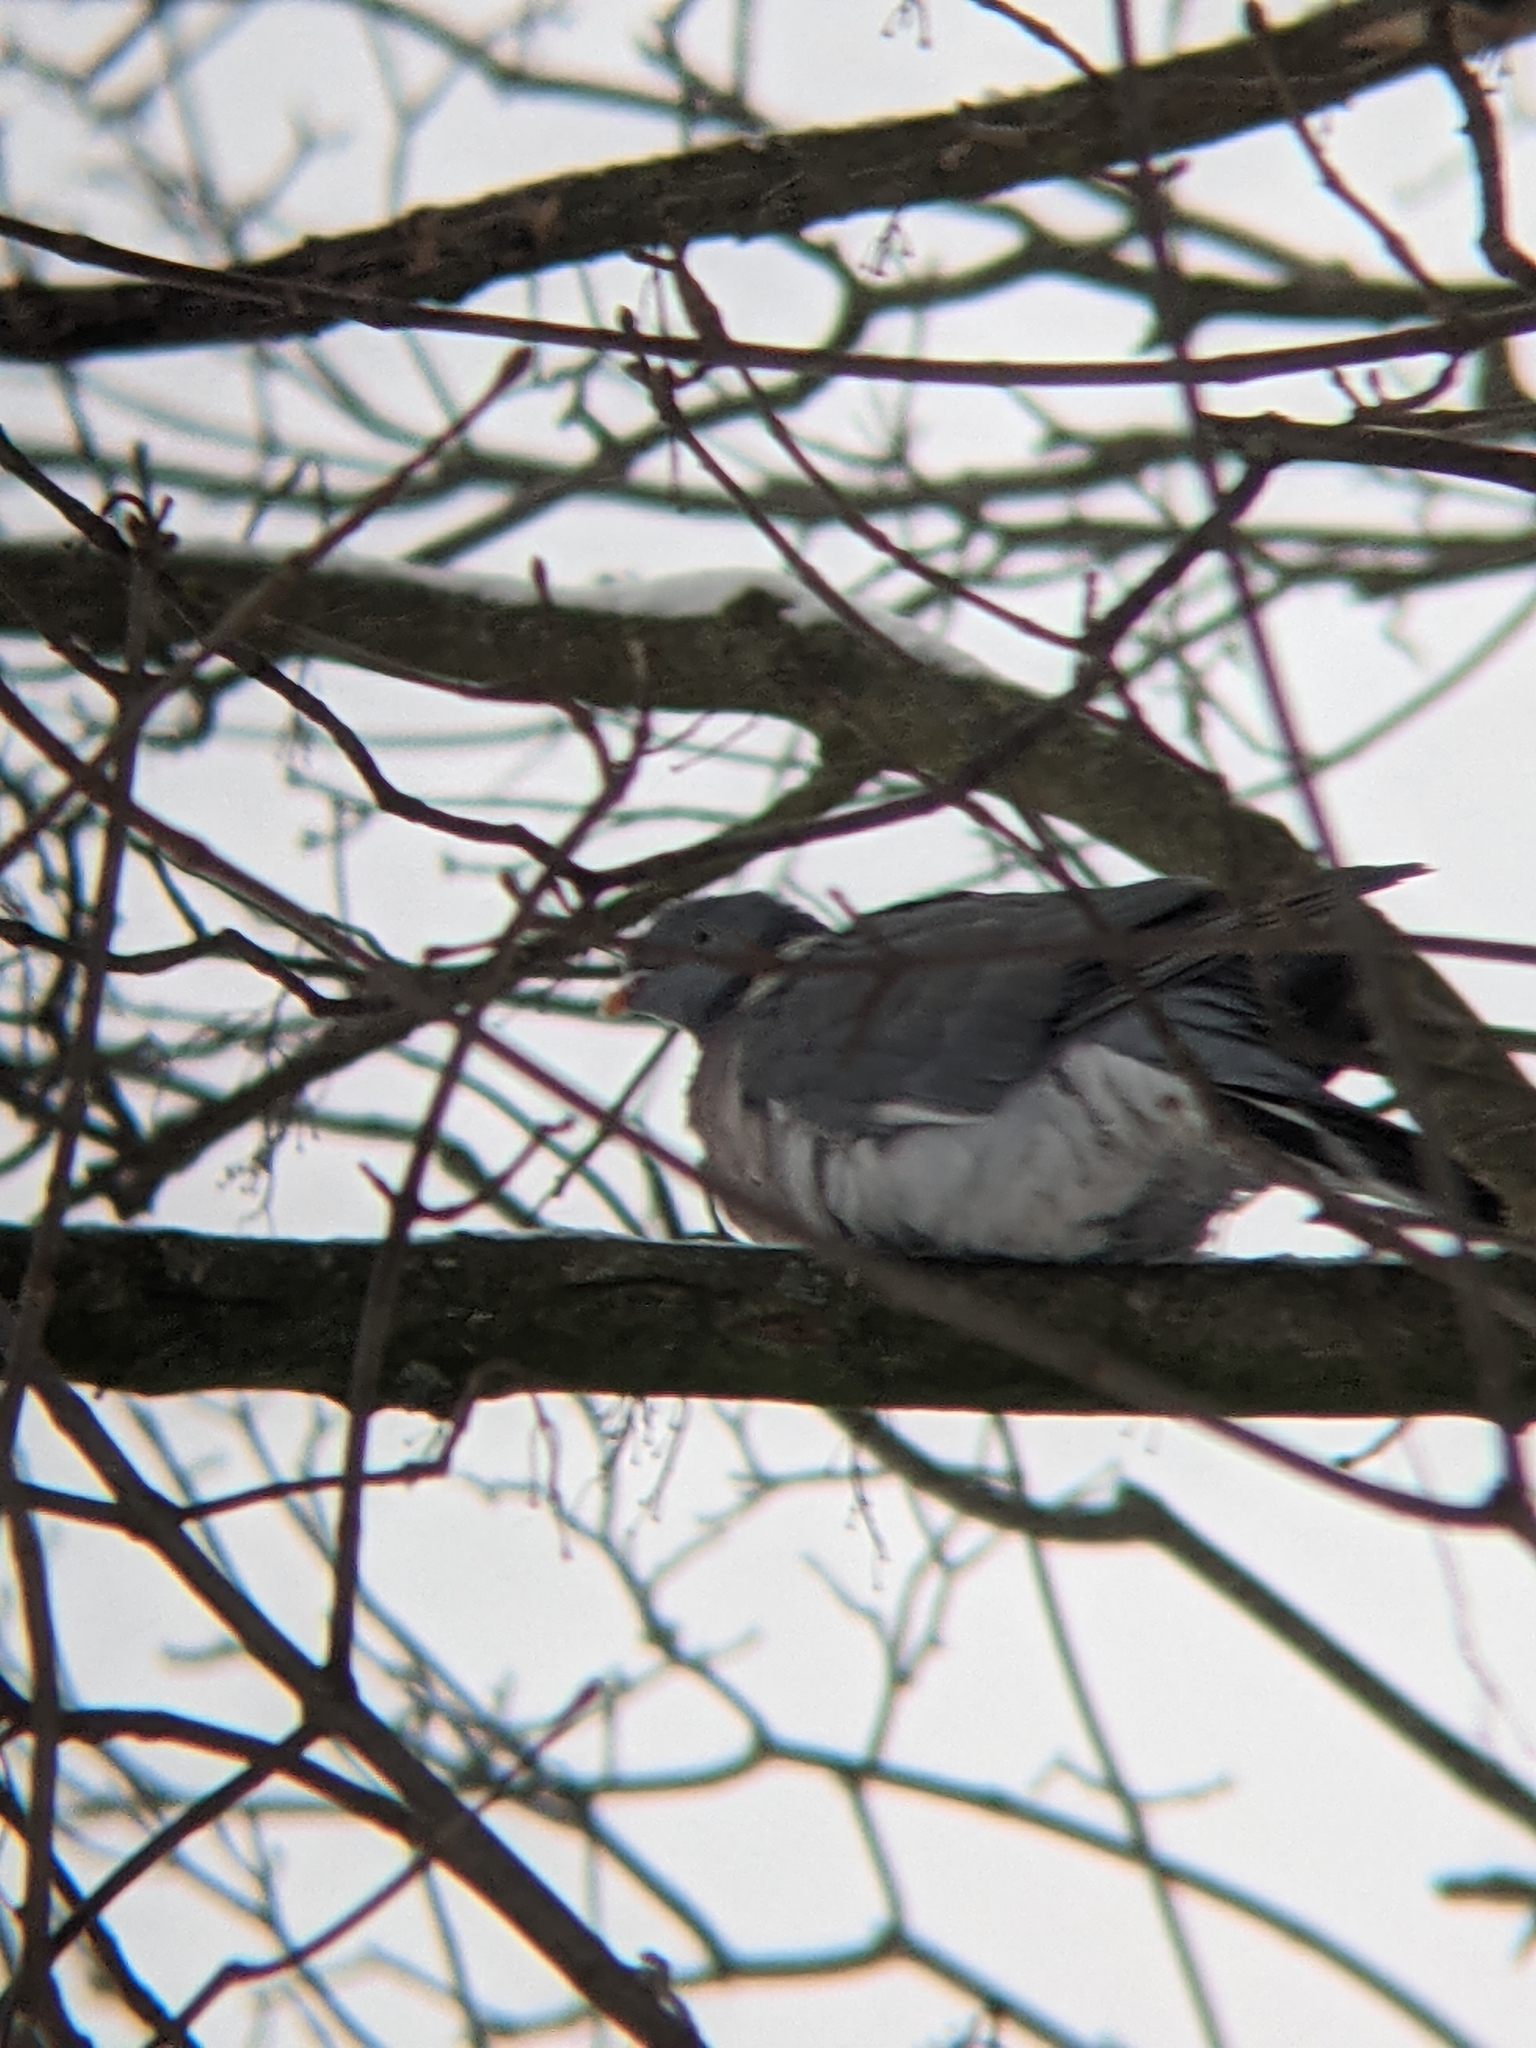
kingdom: Animalia
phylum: Chordata
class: Aves
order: Columbiformes
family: Columbidae
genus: Columba
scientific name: Columba palumbus
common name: Common wood pigeon
